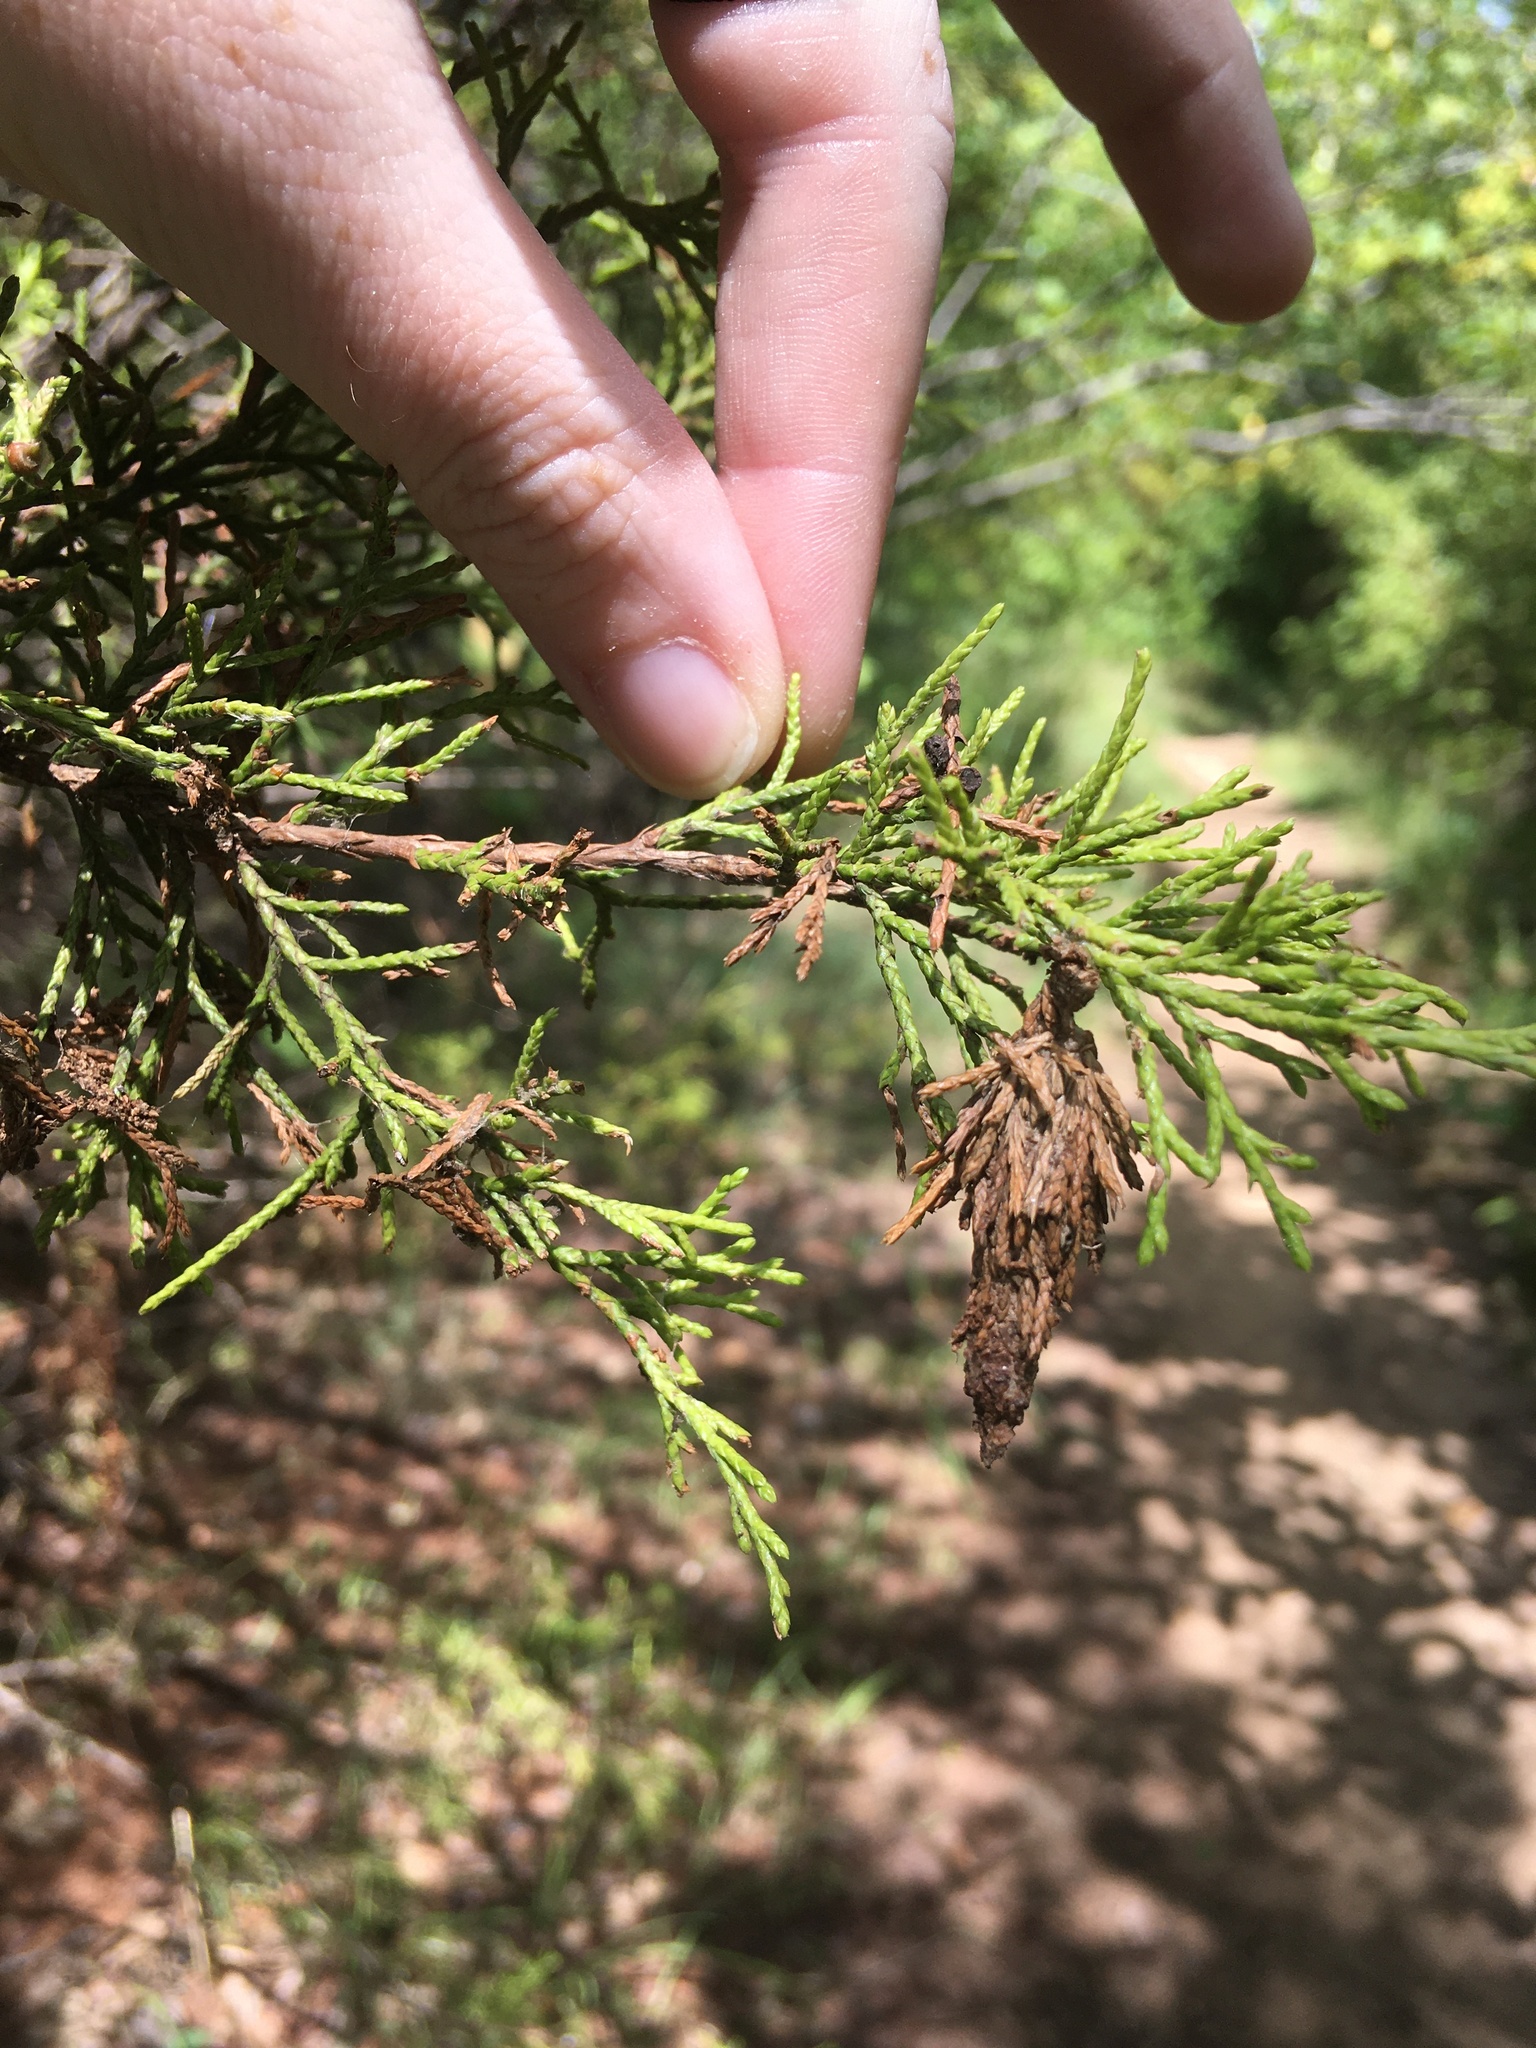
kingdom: Animalia
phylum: Arthropoda
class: Insecta
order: Lepidoptera
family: Psychidae
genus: Thyridopteryx
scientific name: Thyridopteryx ephemeraeformis
